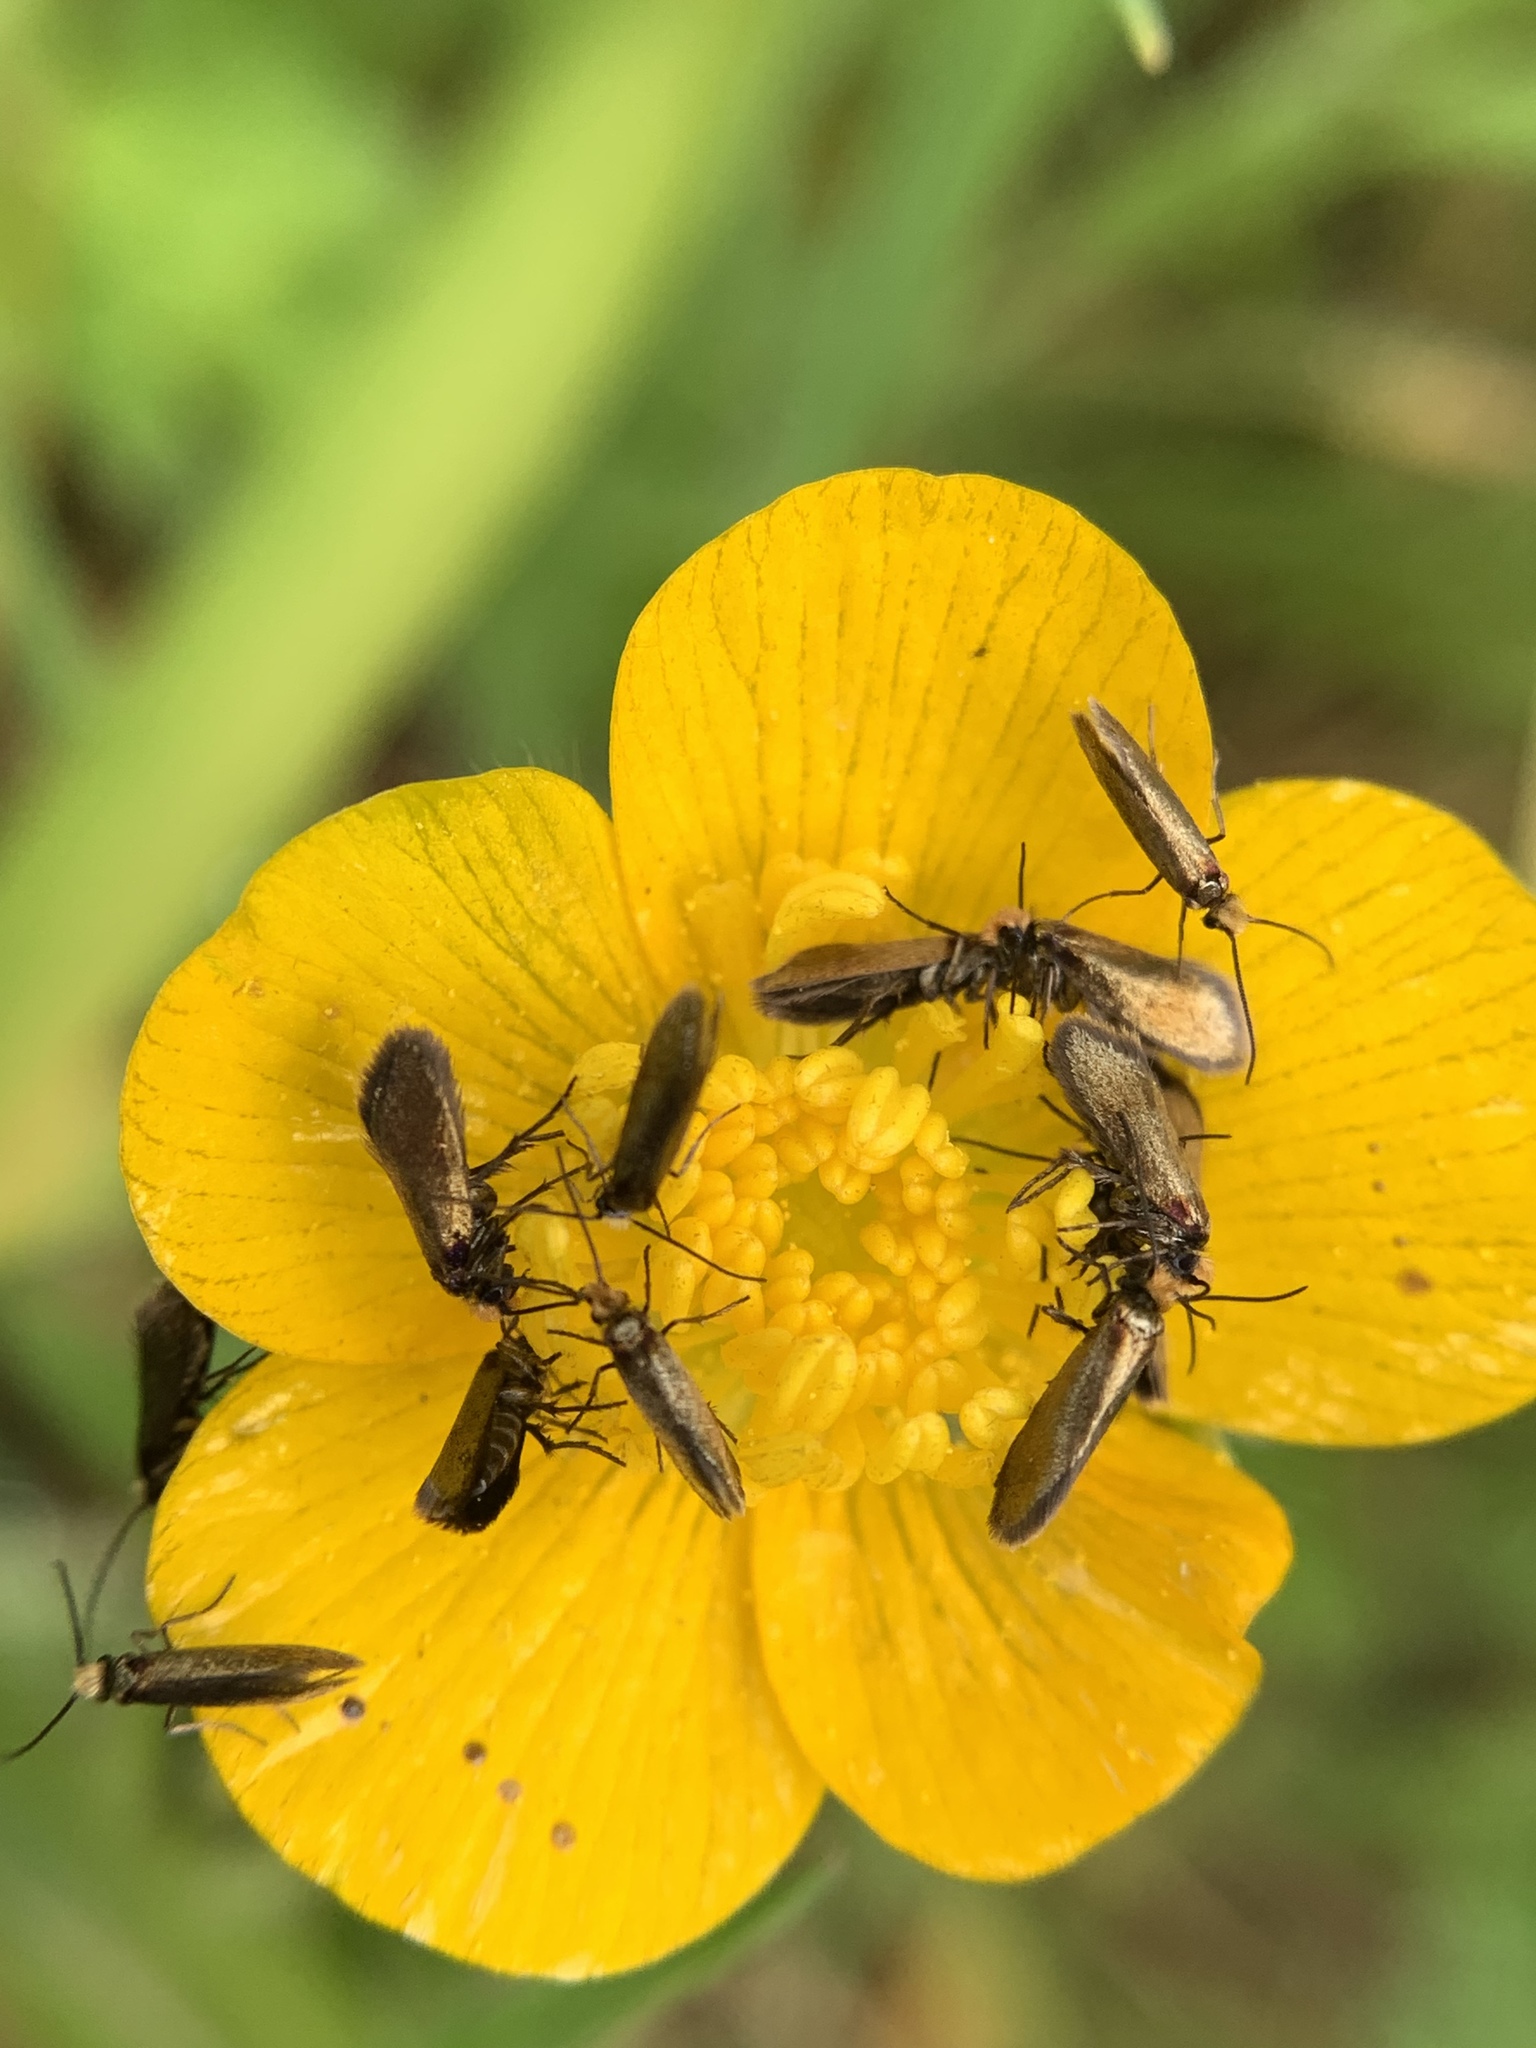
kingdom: Animalia
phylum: Arthropoda
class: Insecta
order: Lepidoptera
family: Micropterigidae
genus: Micropterix
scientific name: Micropterix calthella
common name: Plain gold
